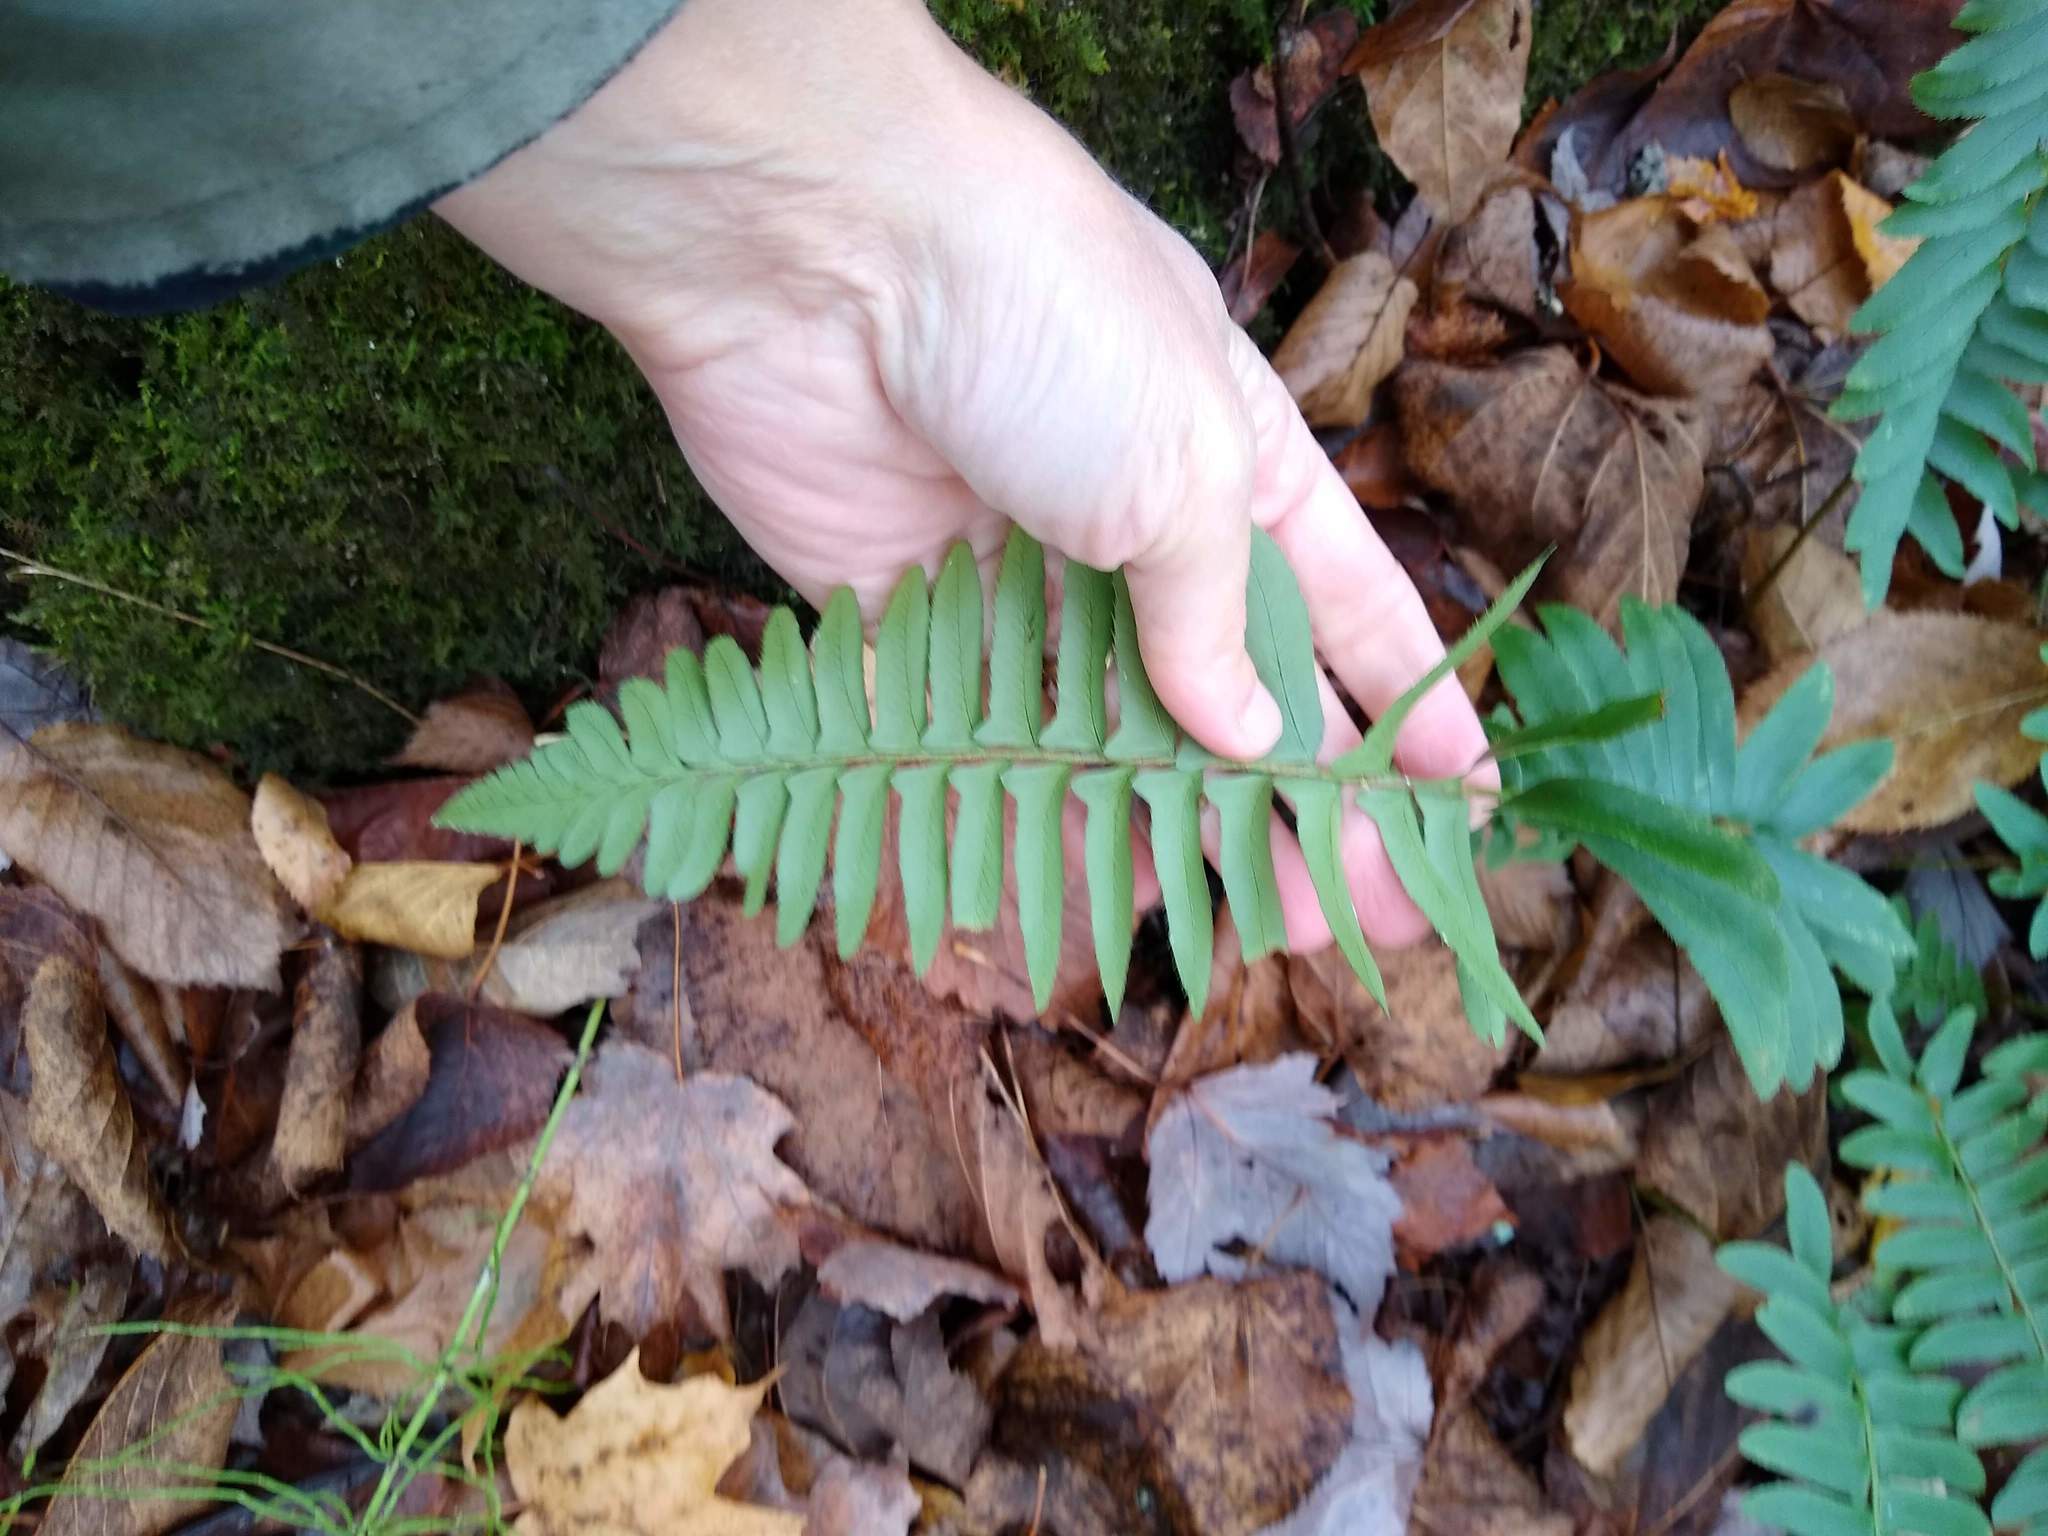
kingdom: Plantae
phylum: Tracheophyta
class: Polypodiopsida
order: Polypodiales
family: Dryopteridaceae
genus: Polystichum
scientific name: Polystichum acrostichoides
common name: Christmas fern
